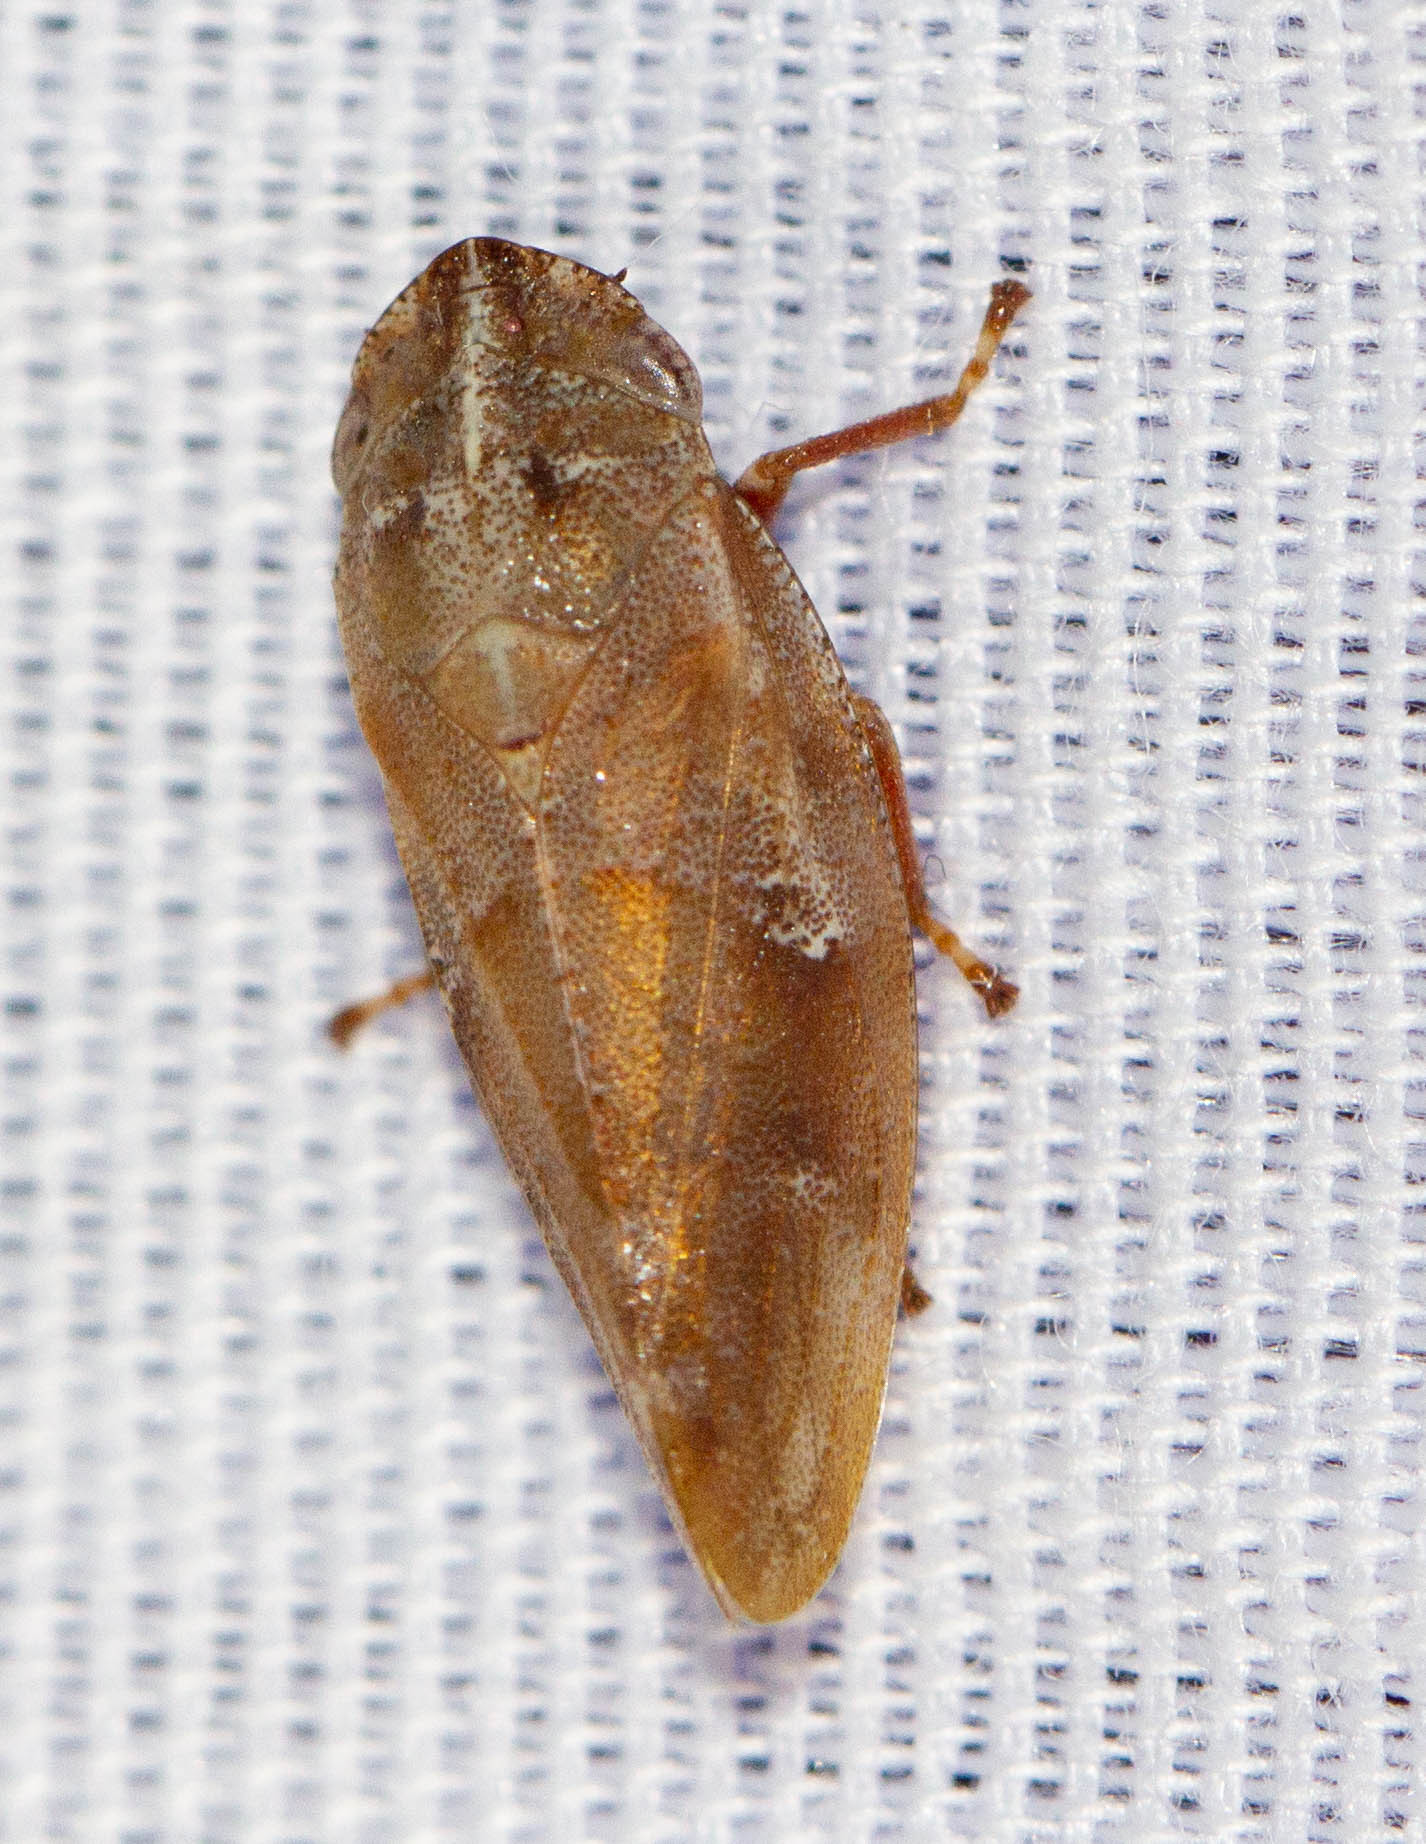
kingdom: Animalia
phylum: Arthropoda
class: Insecta
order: Hemiptera
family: Aphrophoridae
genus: Aphrophora
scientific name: Aphrophora saratogensis
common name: Saratoga spittlebug
